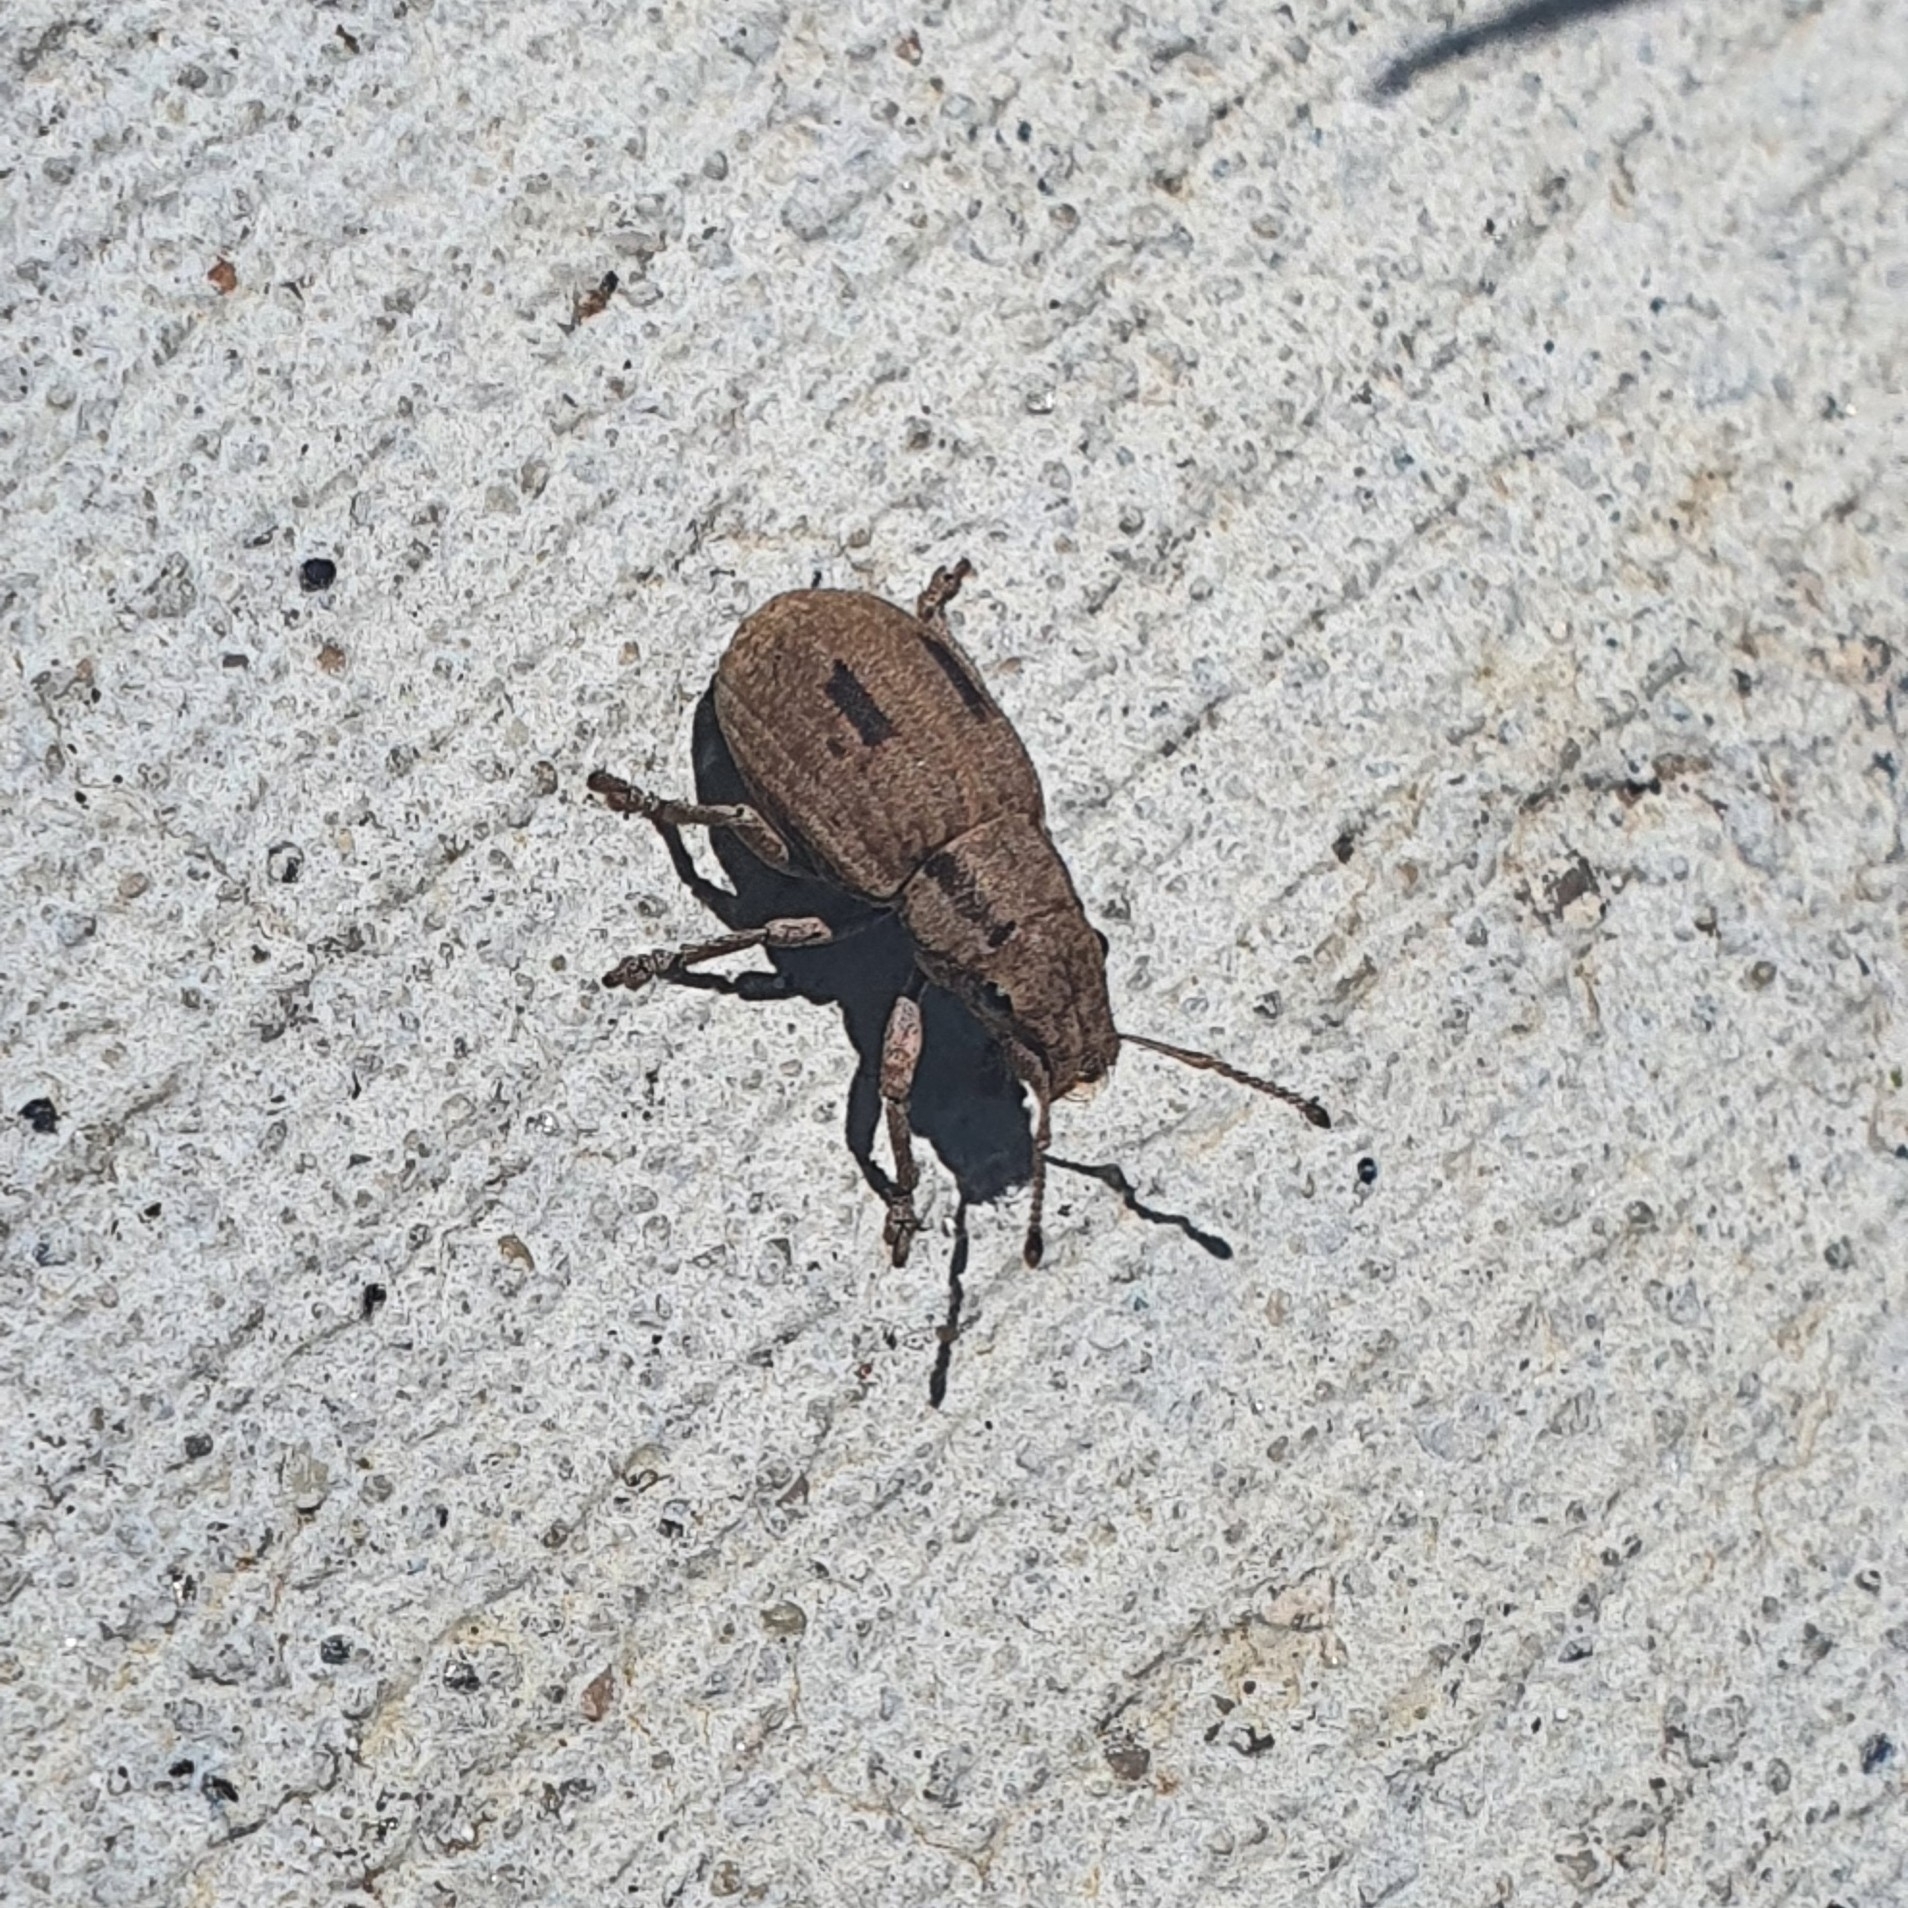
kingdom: Animalia
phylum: Arthropoda
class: Insecta
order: Coleoptera
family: Curculionidae
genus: Eurymetopus
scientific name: Eurymetopus birabeni
